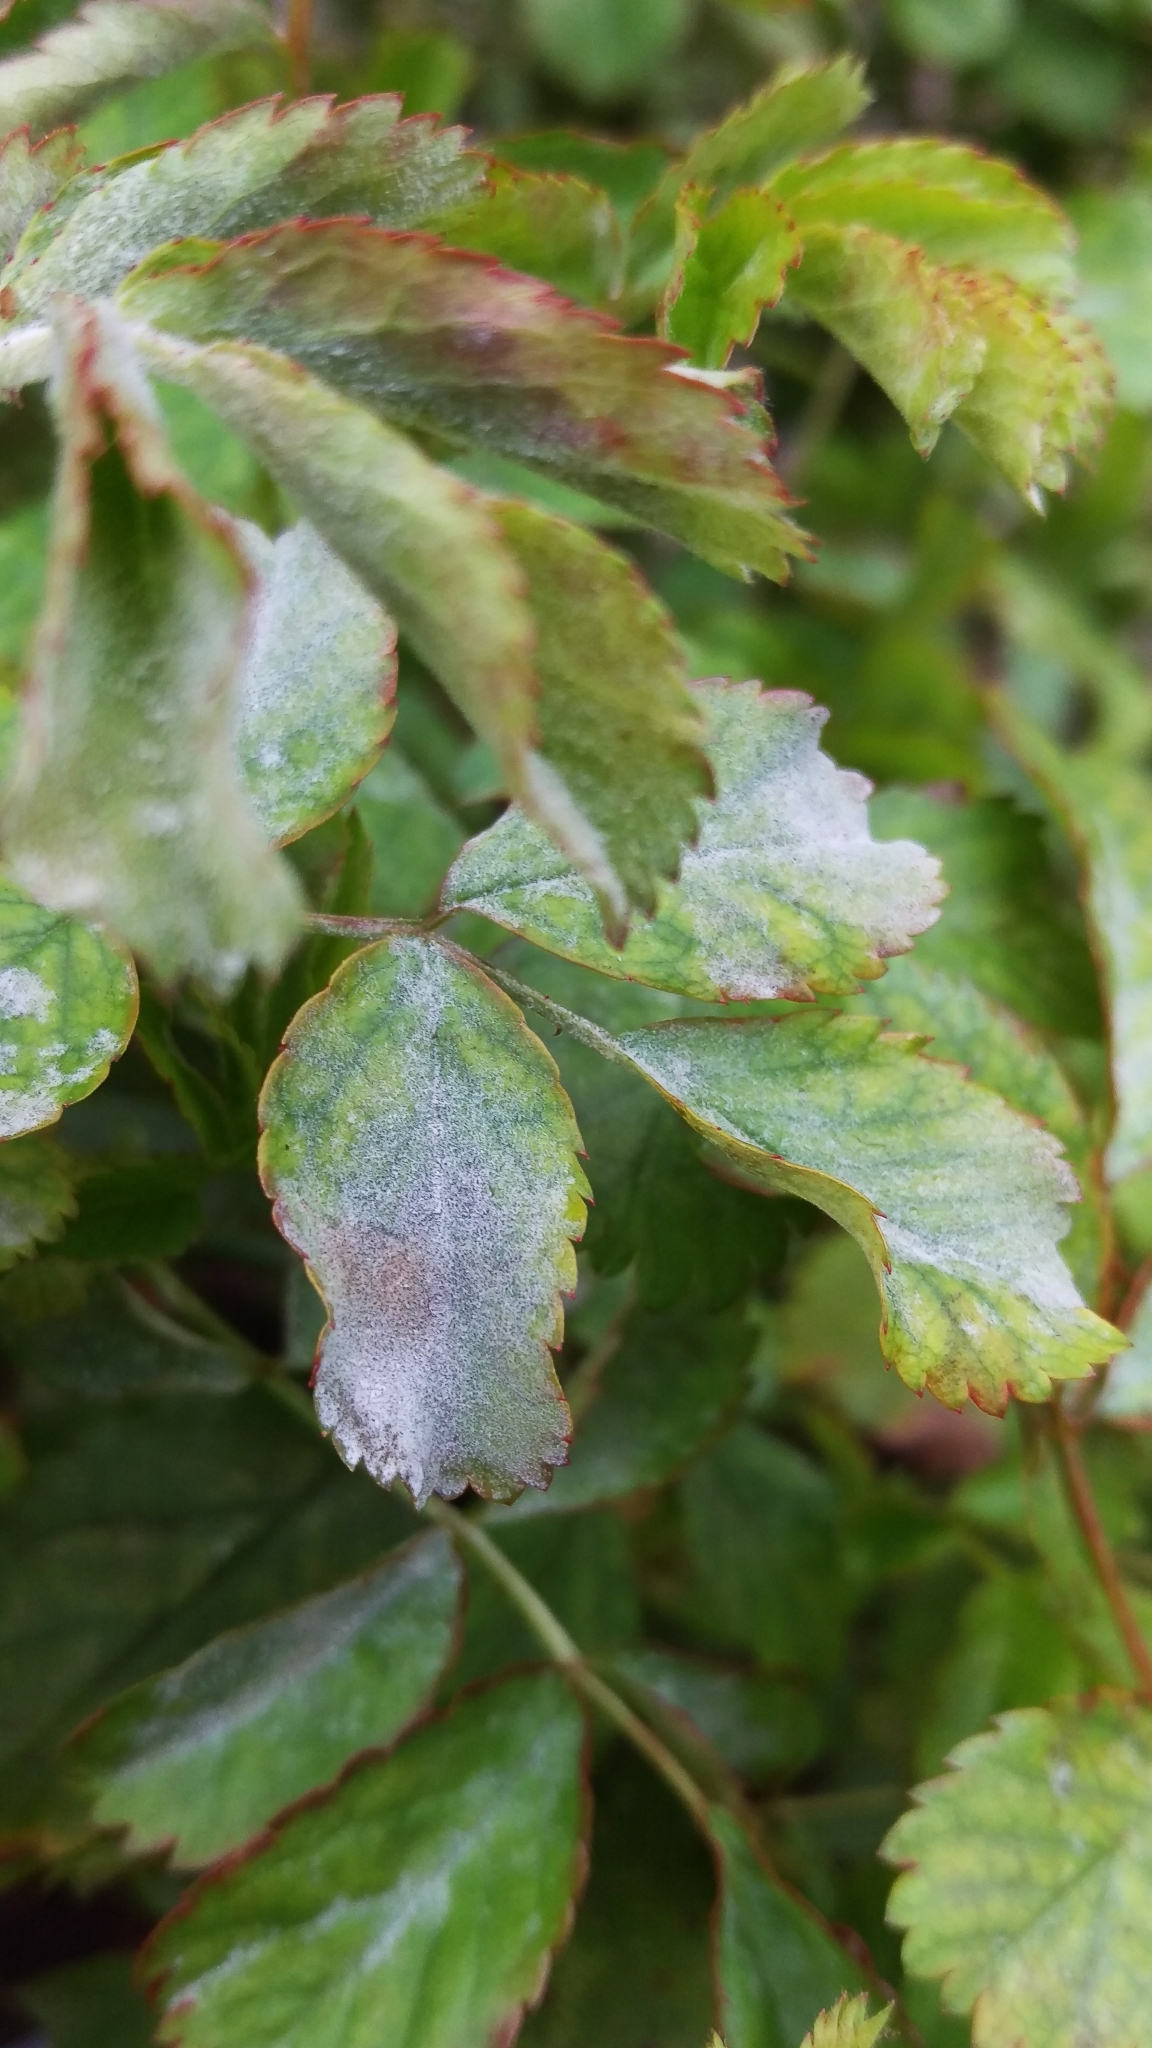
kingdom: Fungi
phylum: Ascomycota
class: Leotiomycetes
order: Helotiales
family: Erysiphaceae
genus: Podosphaera
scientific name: Podosphaera pannosa
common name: Rose mildew
